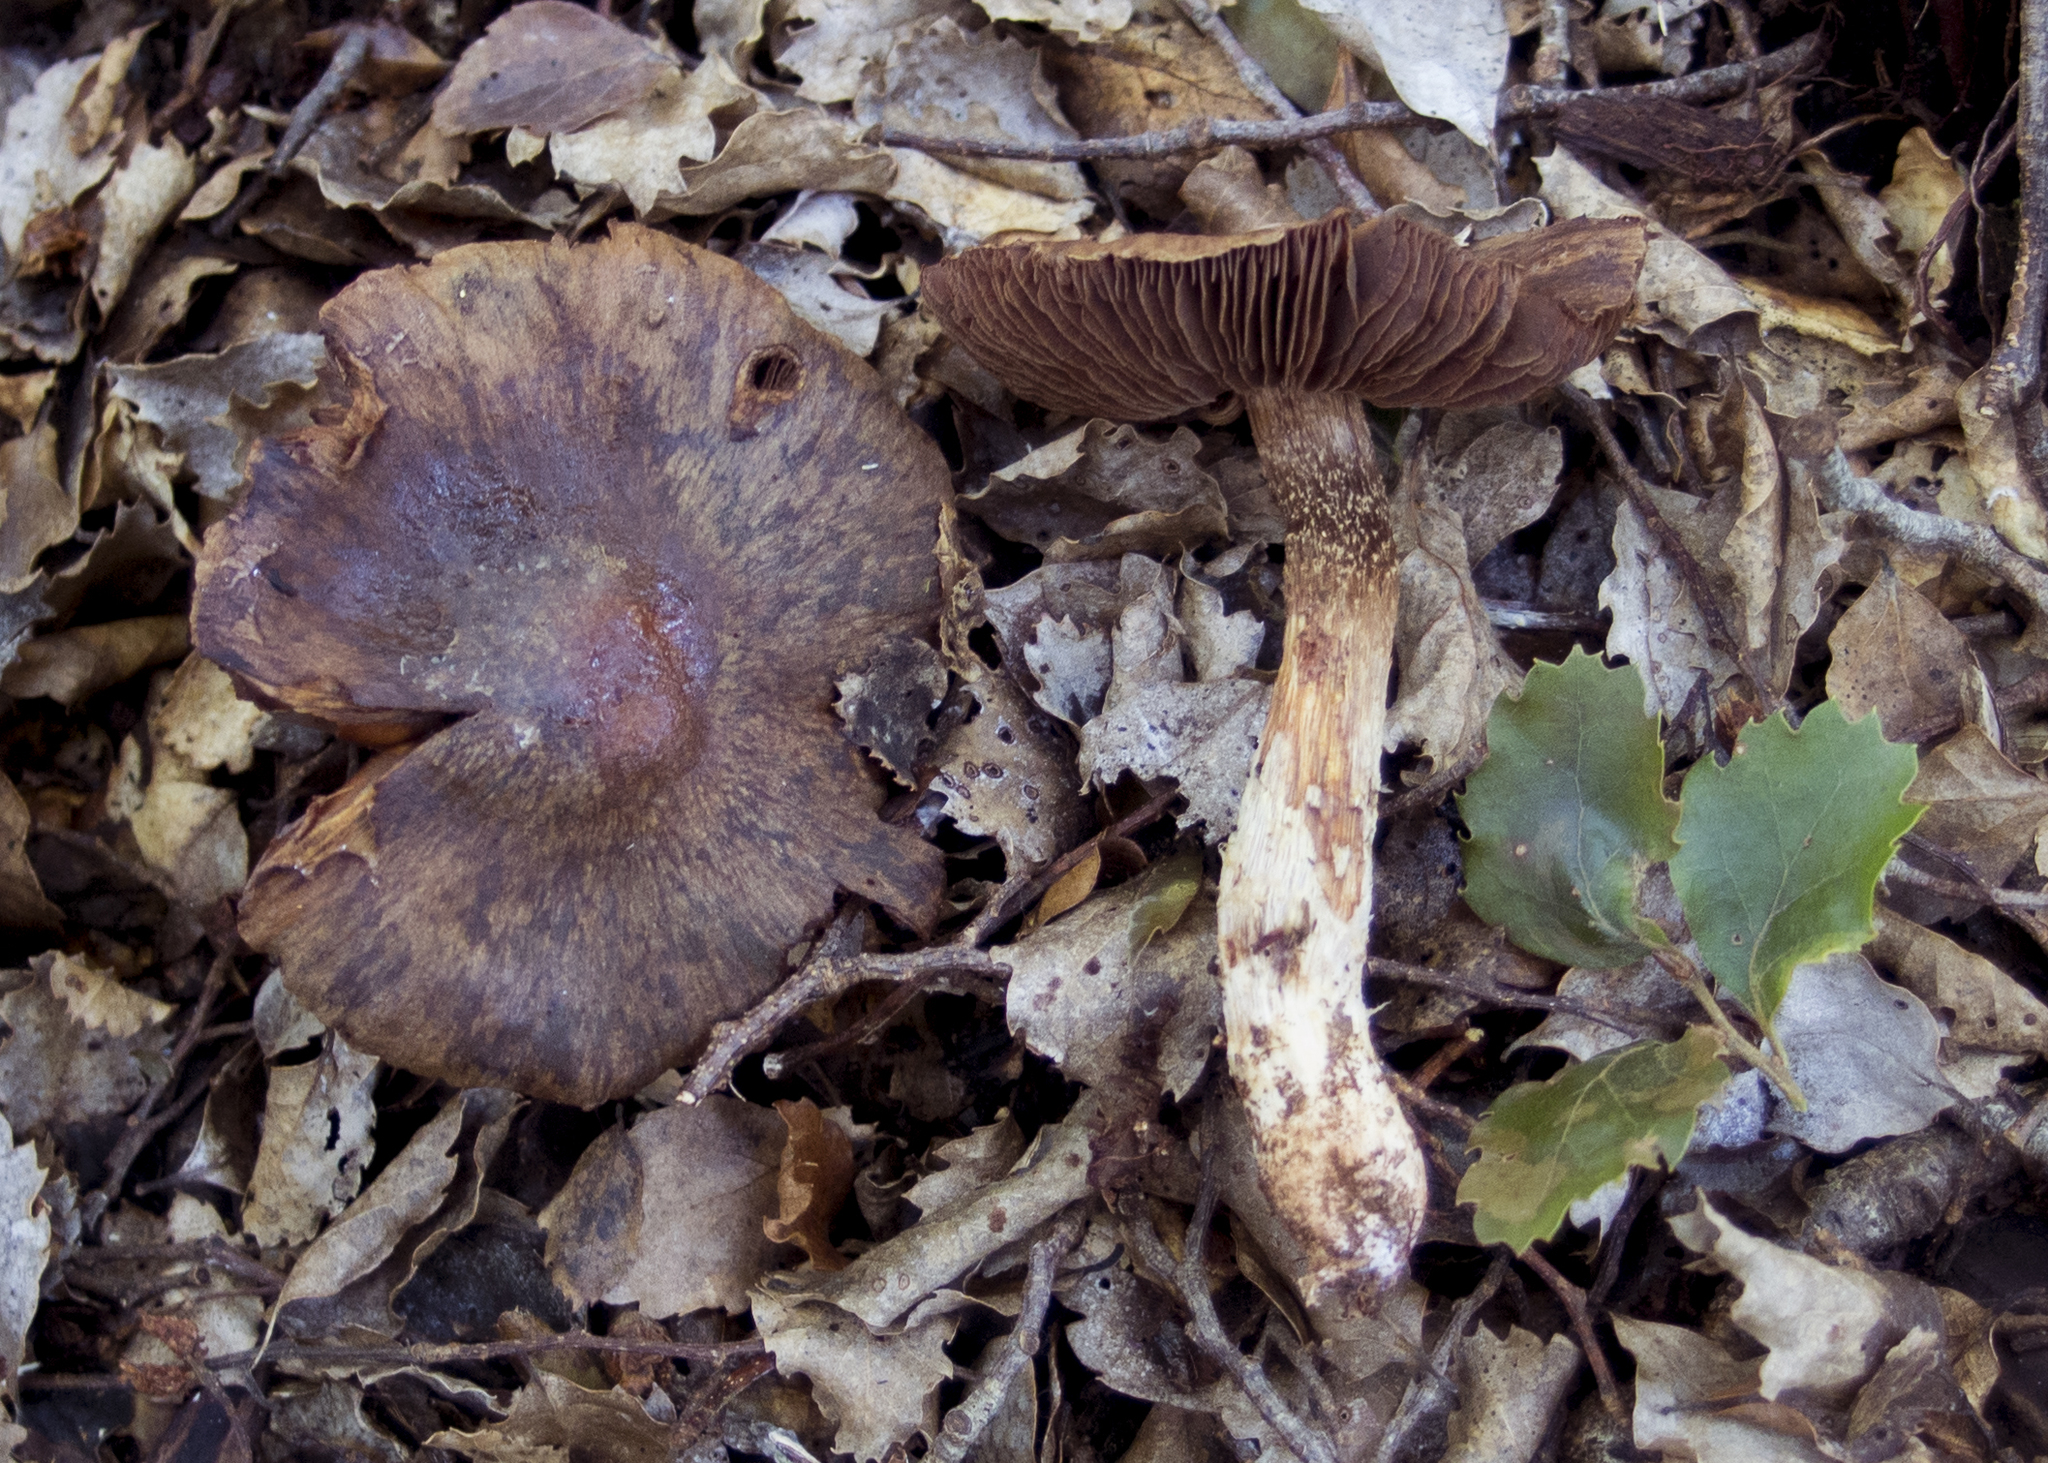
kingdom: Fungi
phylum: Basidiomycota
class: Agaricomycetes
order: Agaricales
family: Cortinariaceae
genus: Aureonarius
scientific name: Aureonarius caryotis
